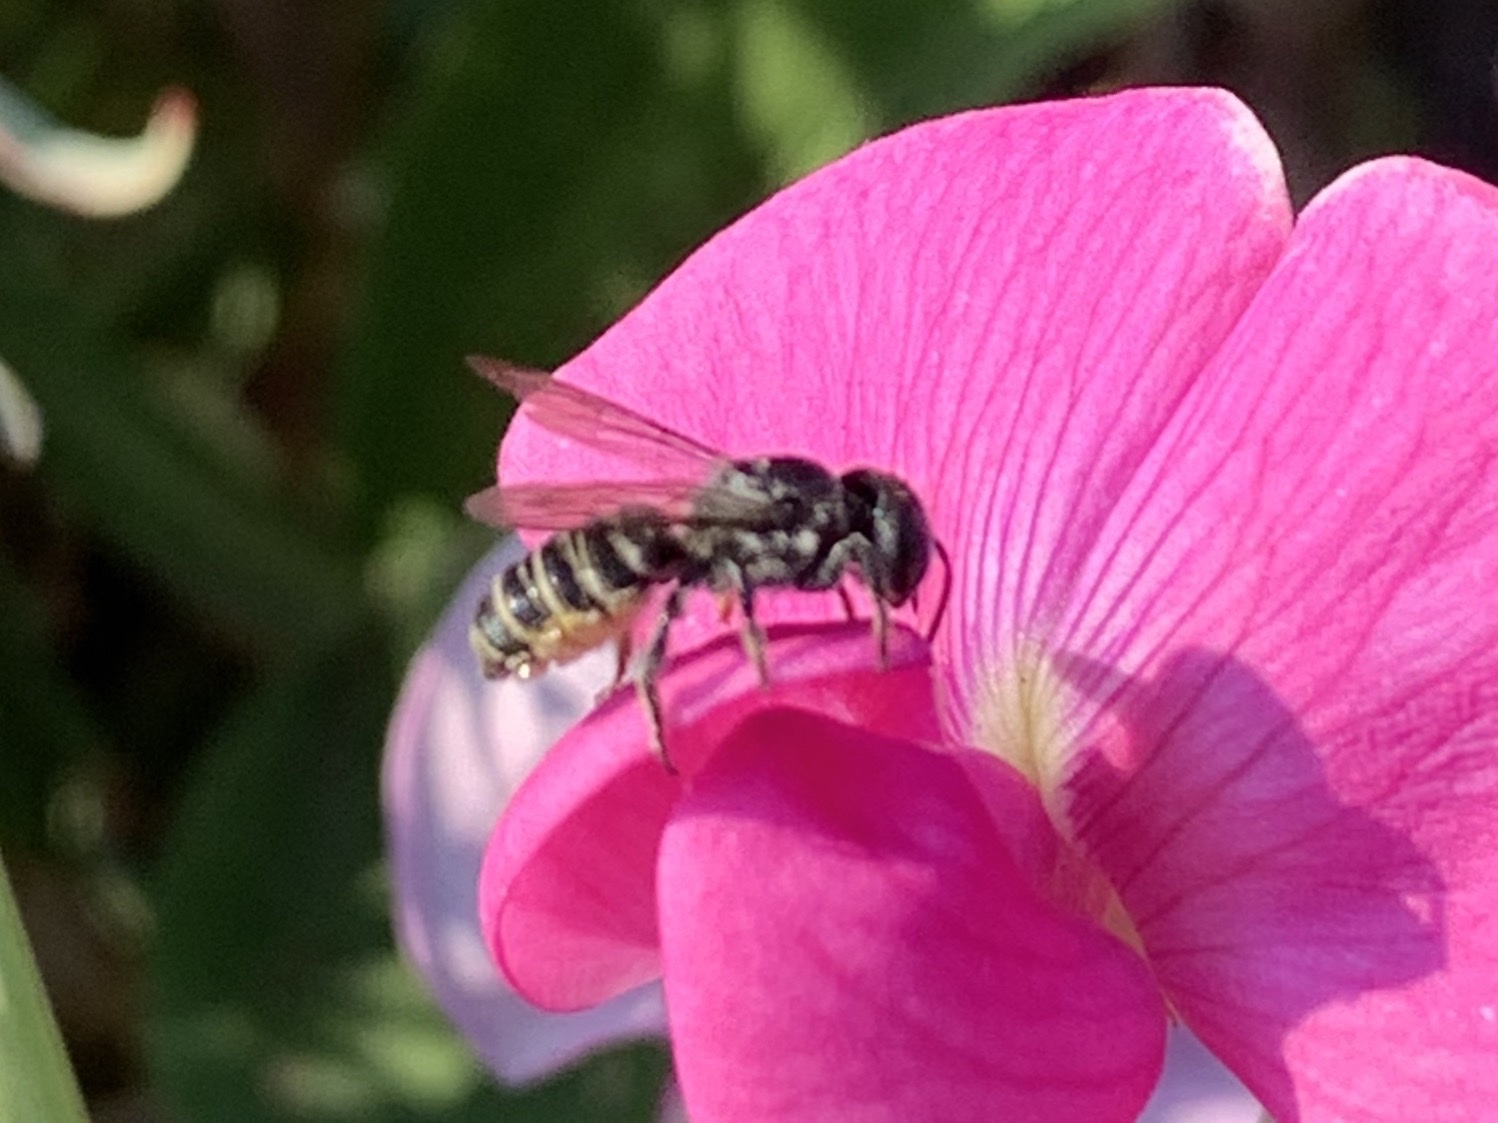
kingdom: Animalia
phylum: Arthropoda
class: Insecta
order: Hymenoptera
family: Megachilidae
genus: Megachile
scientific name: Megachile angelarum
